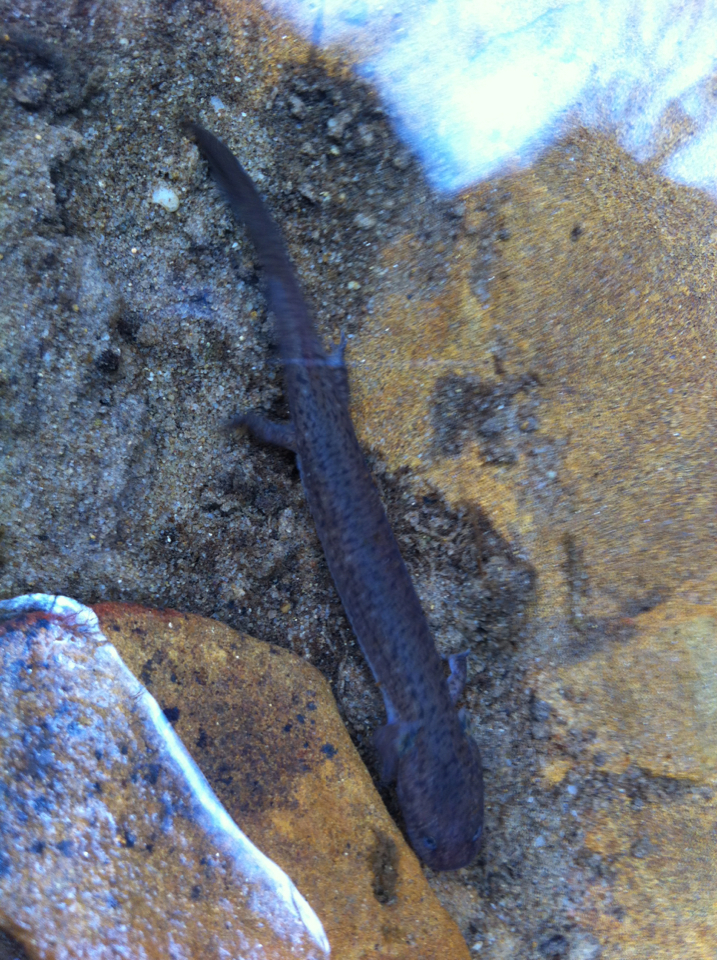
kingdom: Animalia
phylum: Chordata
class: Amphibia
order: Caudata
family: Plethodontidae
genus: Pseudotriton
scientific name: Pseudotriton ruber
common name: Red salamander
